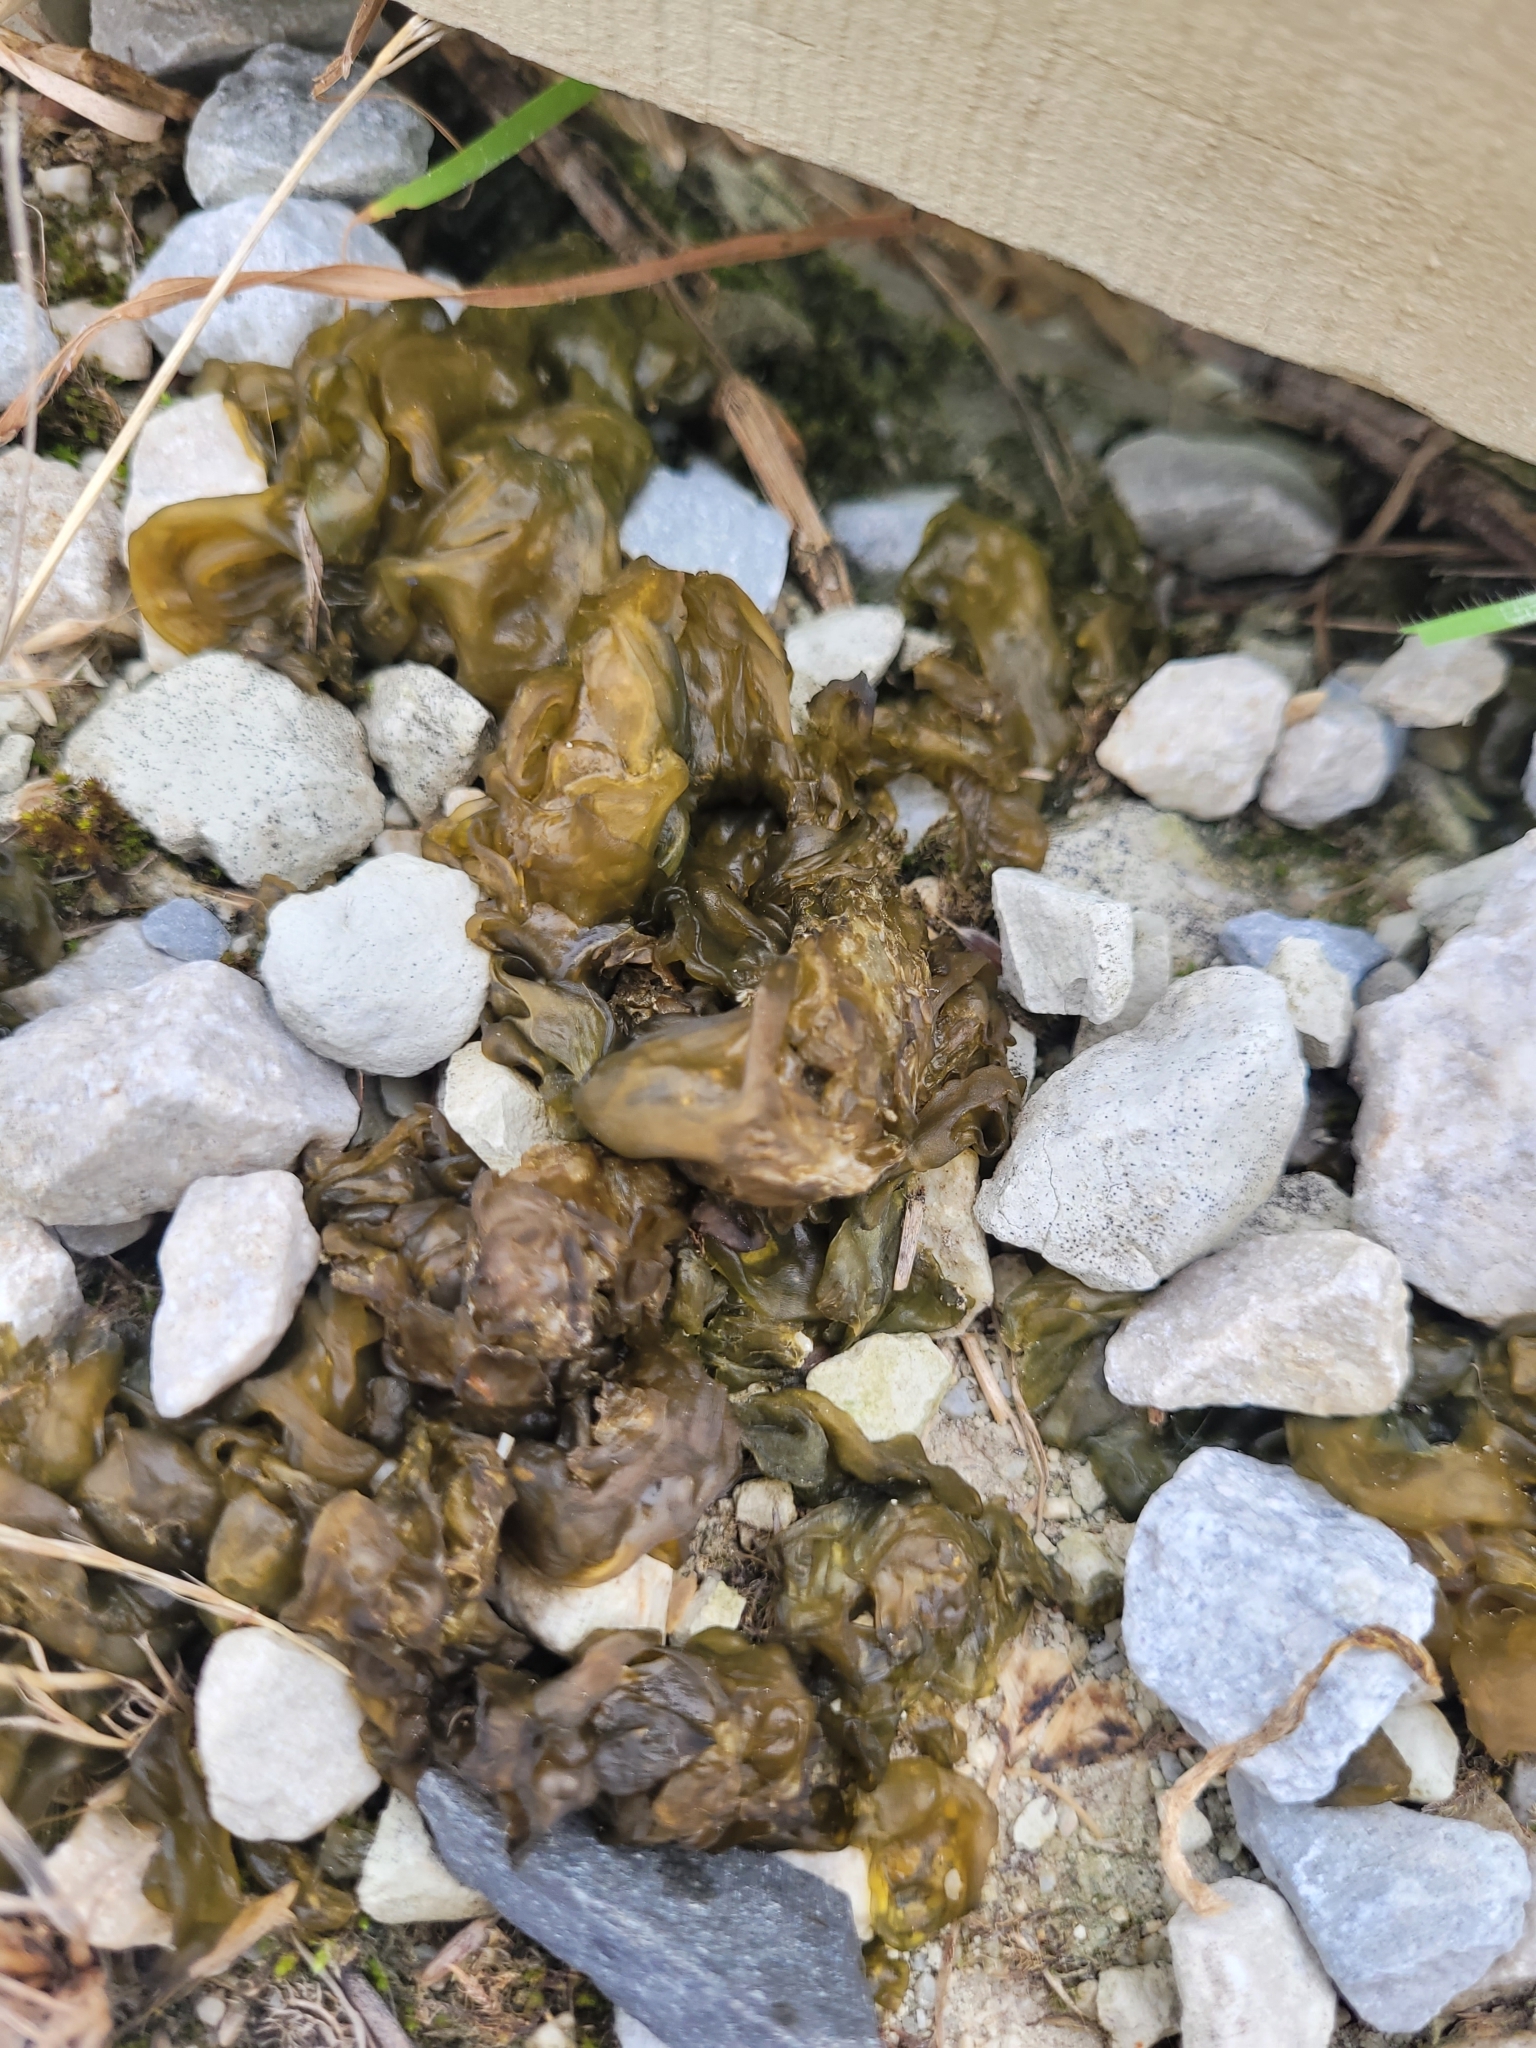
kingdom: Bacteria
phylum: Cyanobacteria
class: Cyanobacteriia
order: Cyanobacteriales
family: Nostocaceae
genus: Nostoc
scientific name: Nostoc commune
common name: Star jelly
